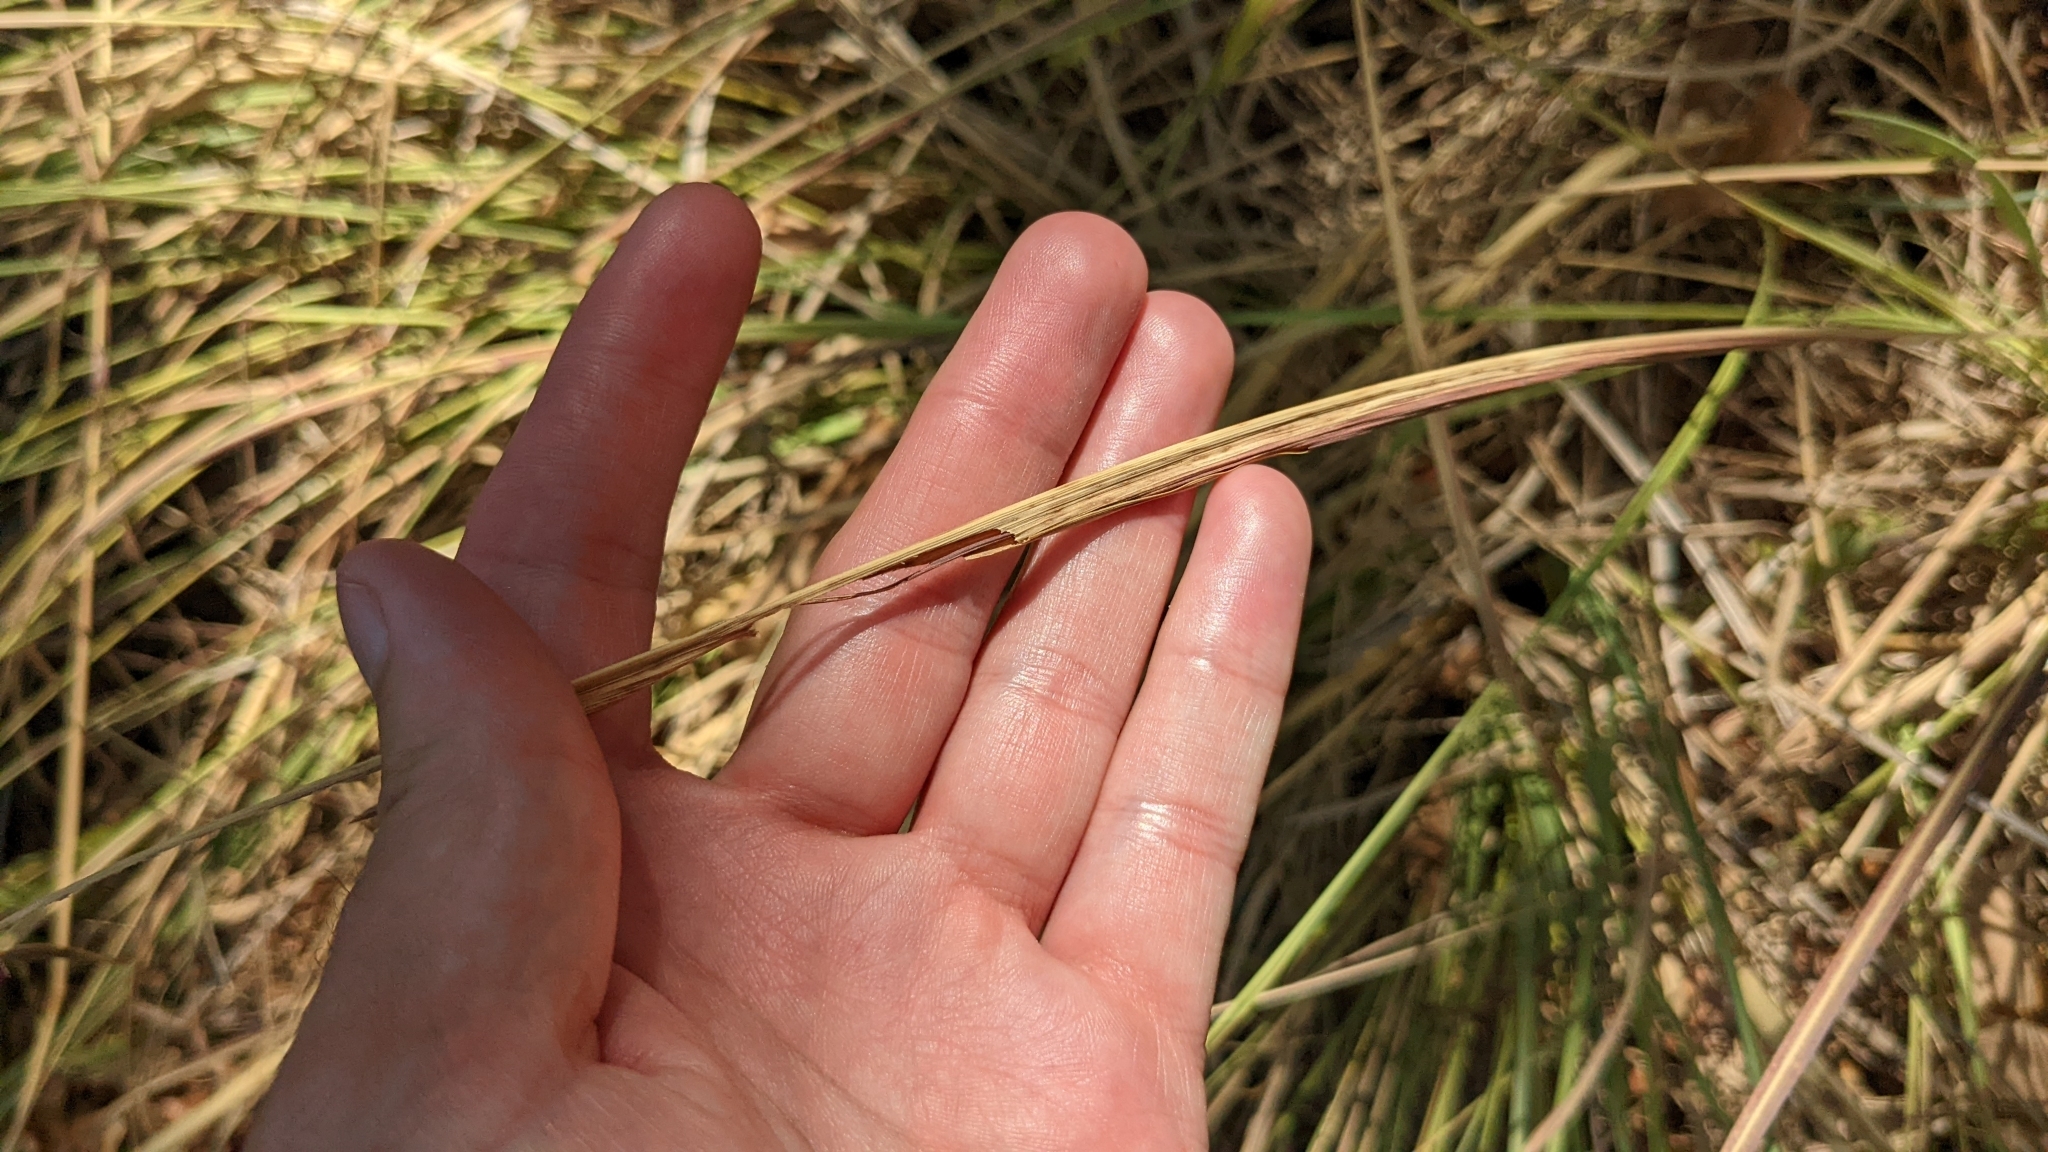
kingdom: Plantae
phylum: Tracheophyta
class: Liliopsida
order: Poales
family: Poaceae
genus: Tripsacum
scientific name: Tripsacum dactyloides
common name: Buffalo-grass
